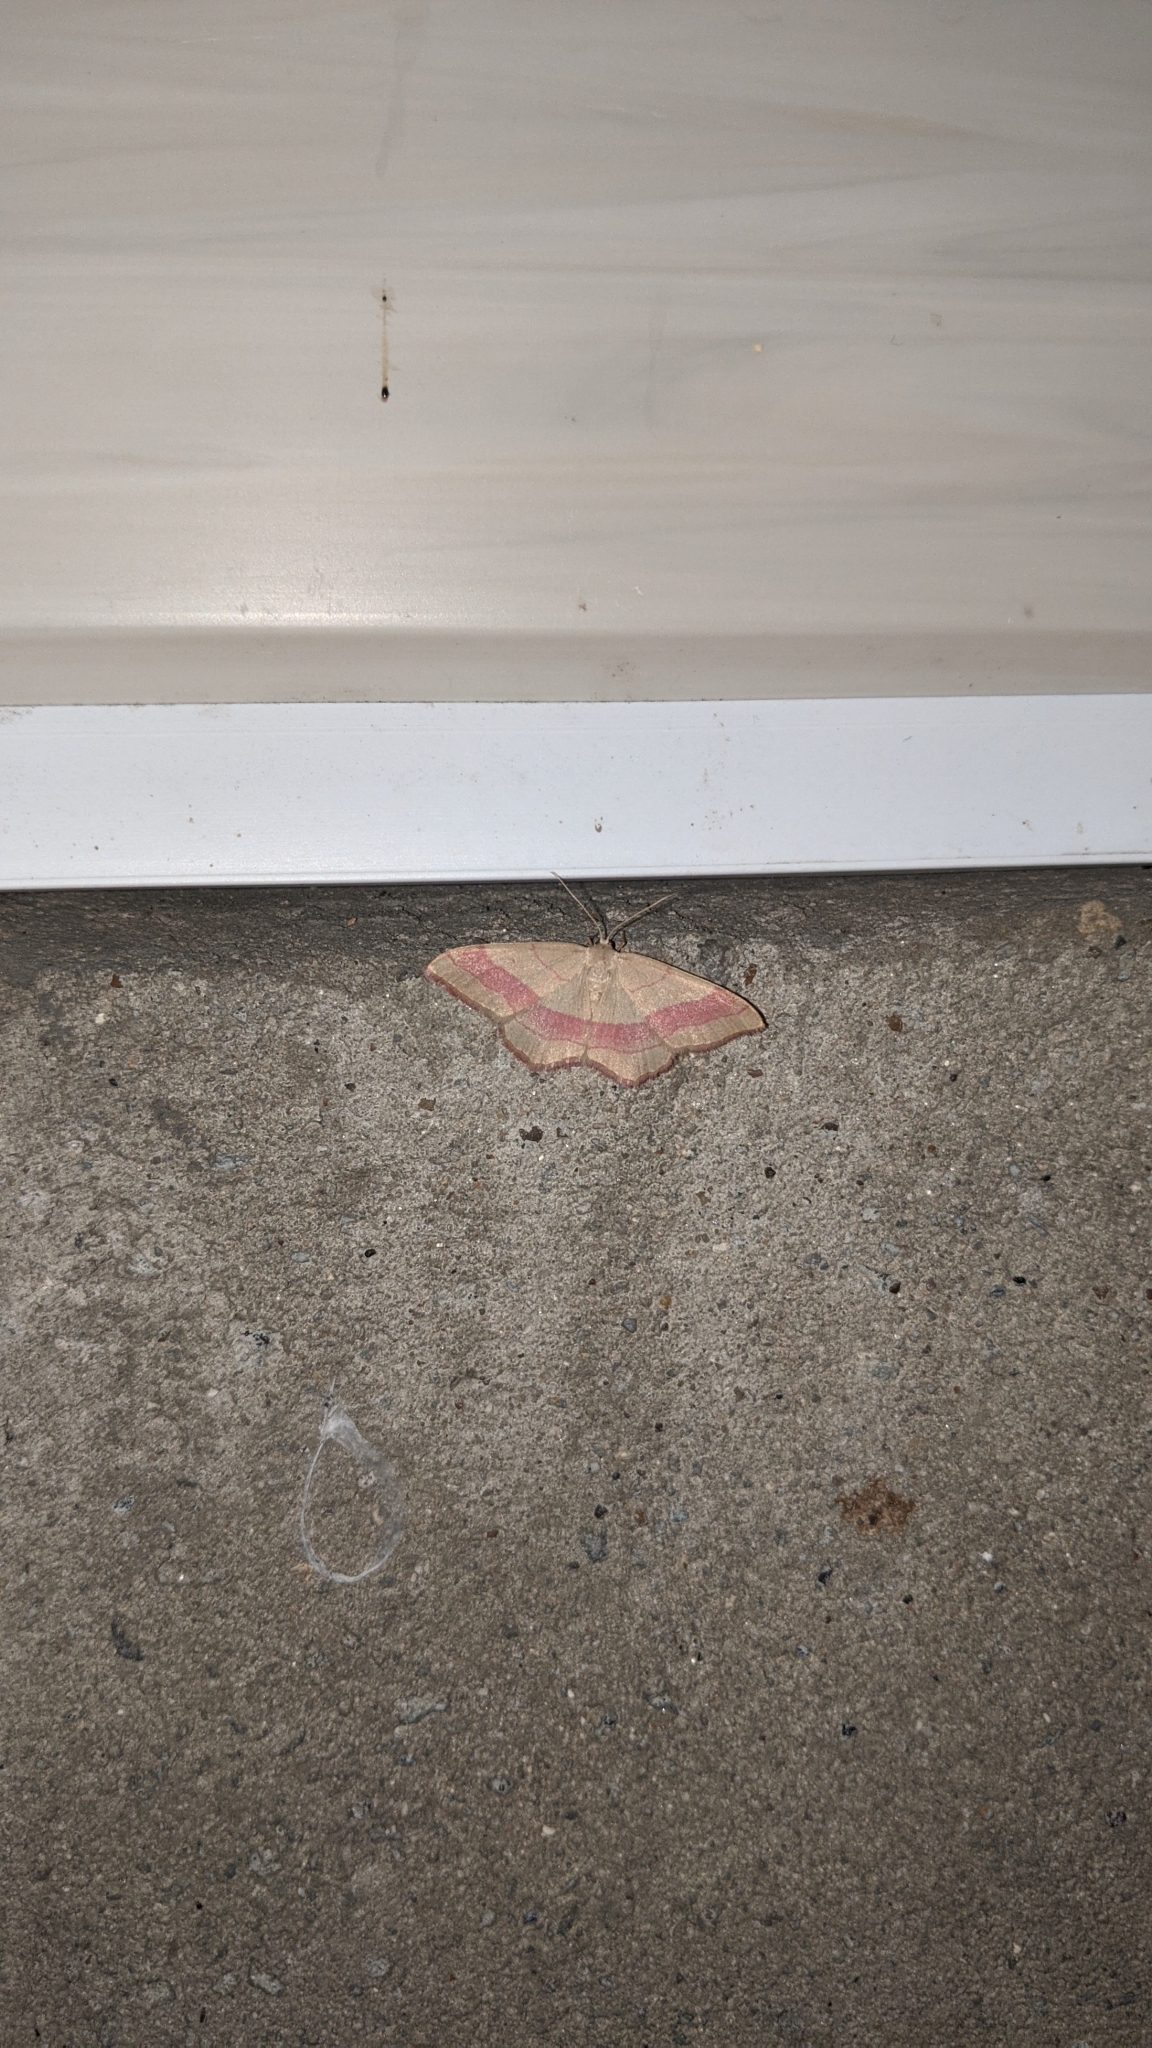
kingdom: Animalia
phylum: Arthropoda
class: Insecta
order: Lepidoptera
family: Geometridae
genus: Rhodostrophia
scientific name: Rhodostrophia vibicaria
